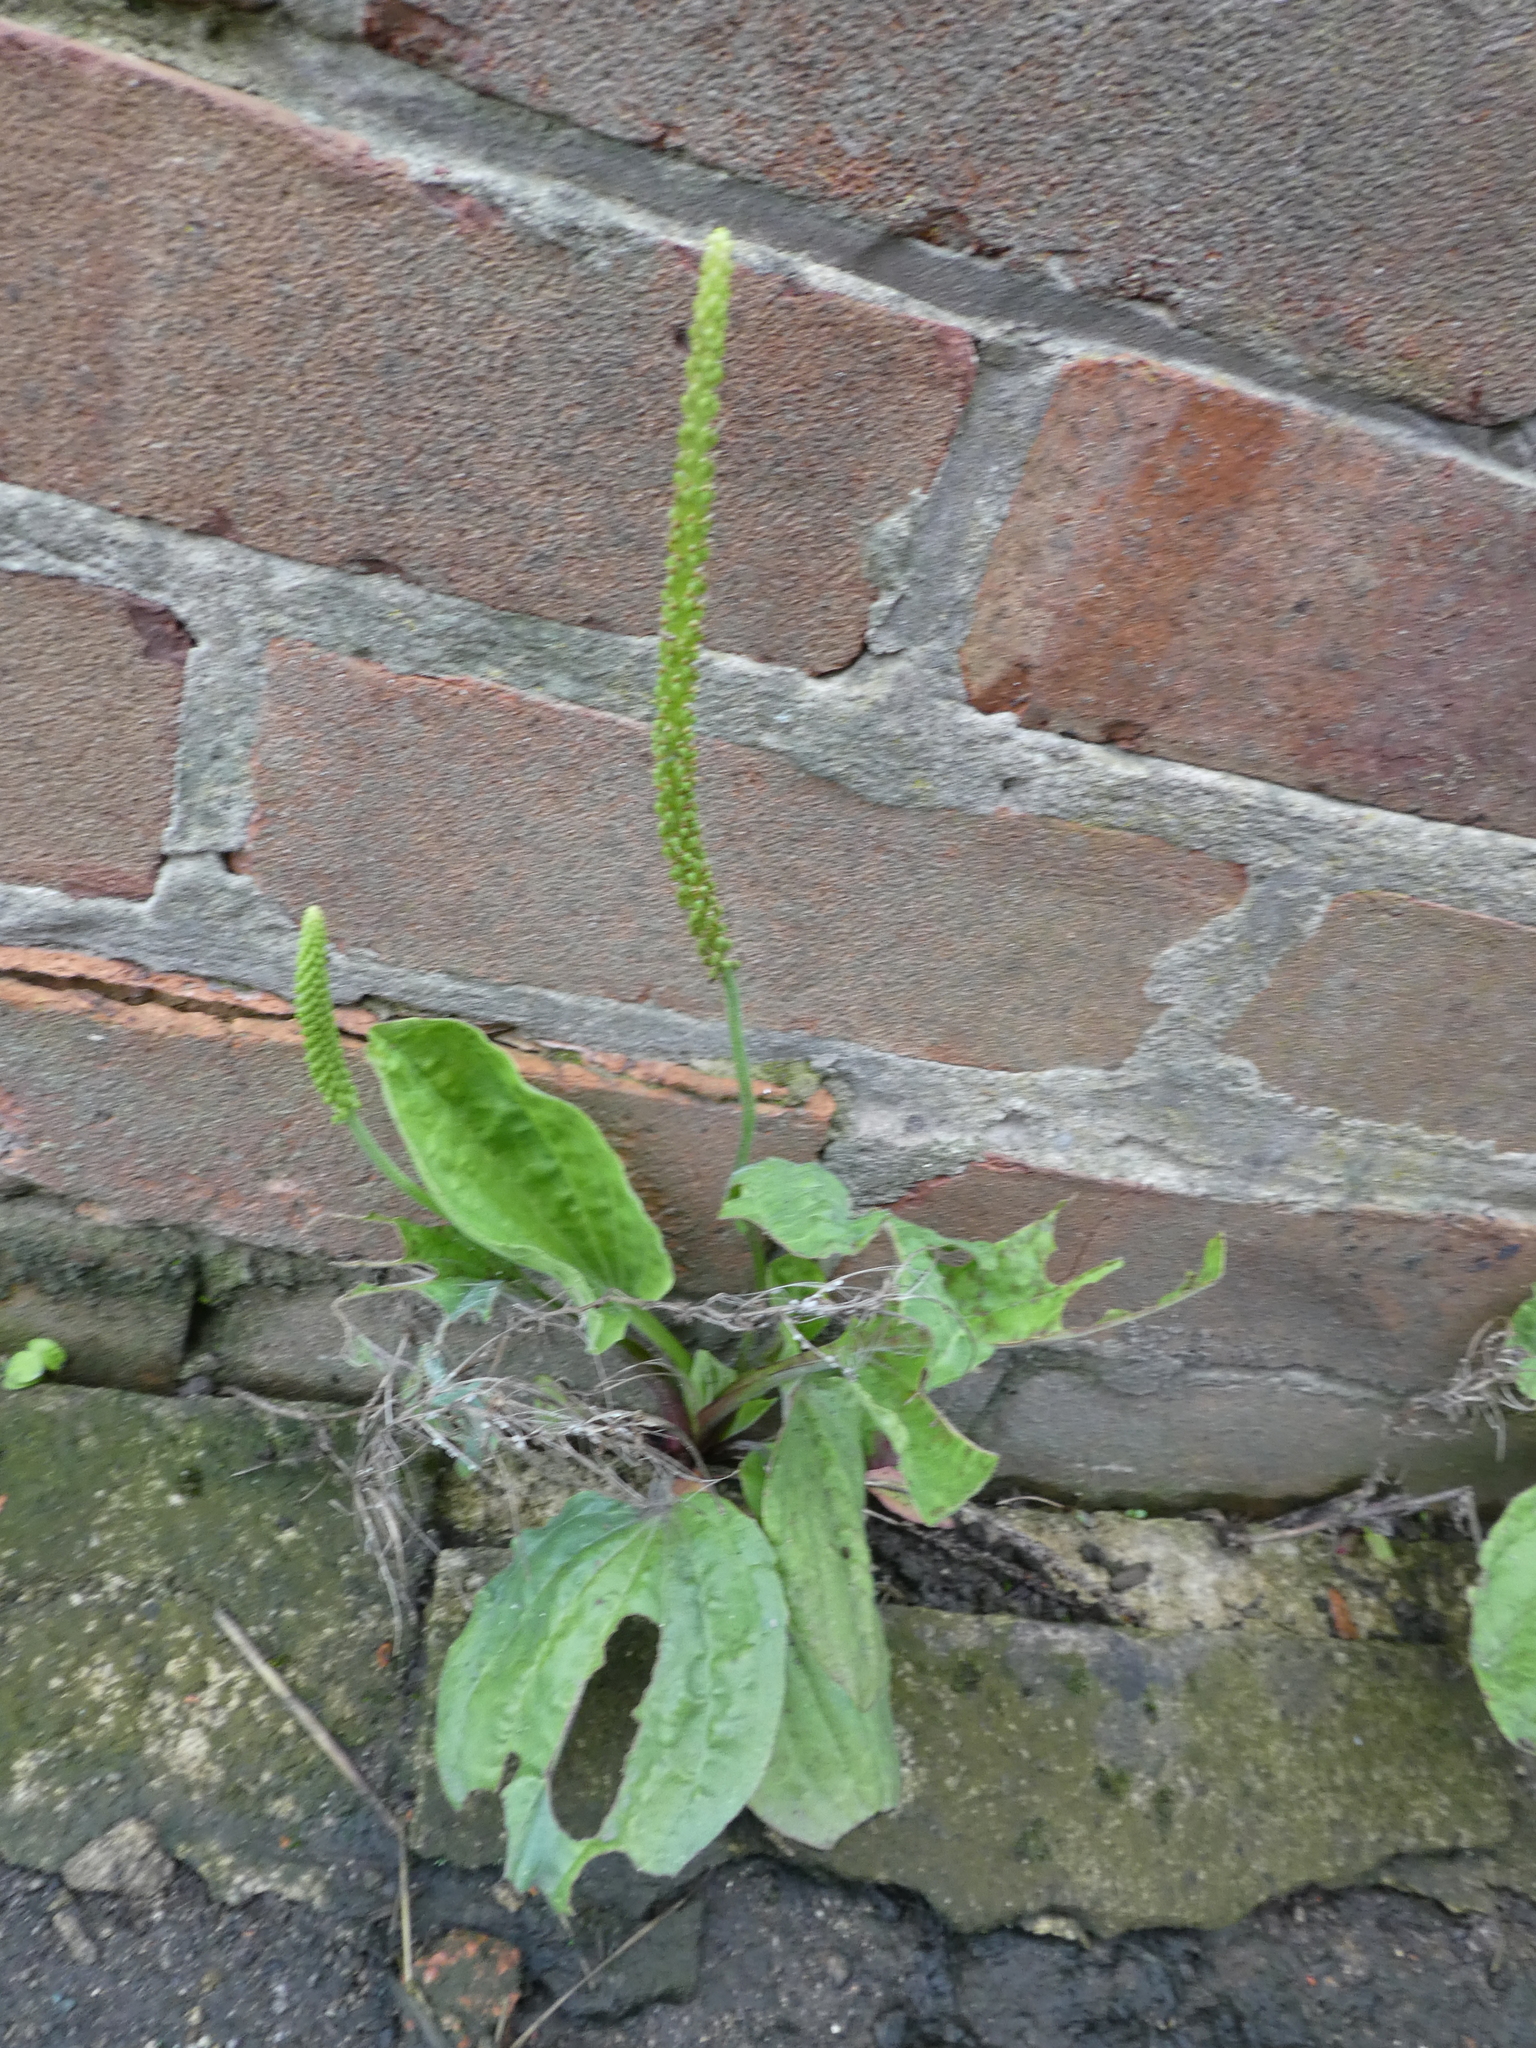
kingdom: Plantae
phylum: Tracheophyta
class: Magnoliopsida
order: Lamiales
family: Plantaginaceae
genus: Plantago
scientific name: Plantago major
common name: Common plantain
